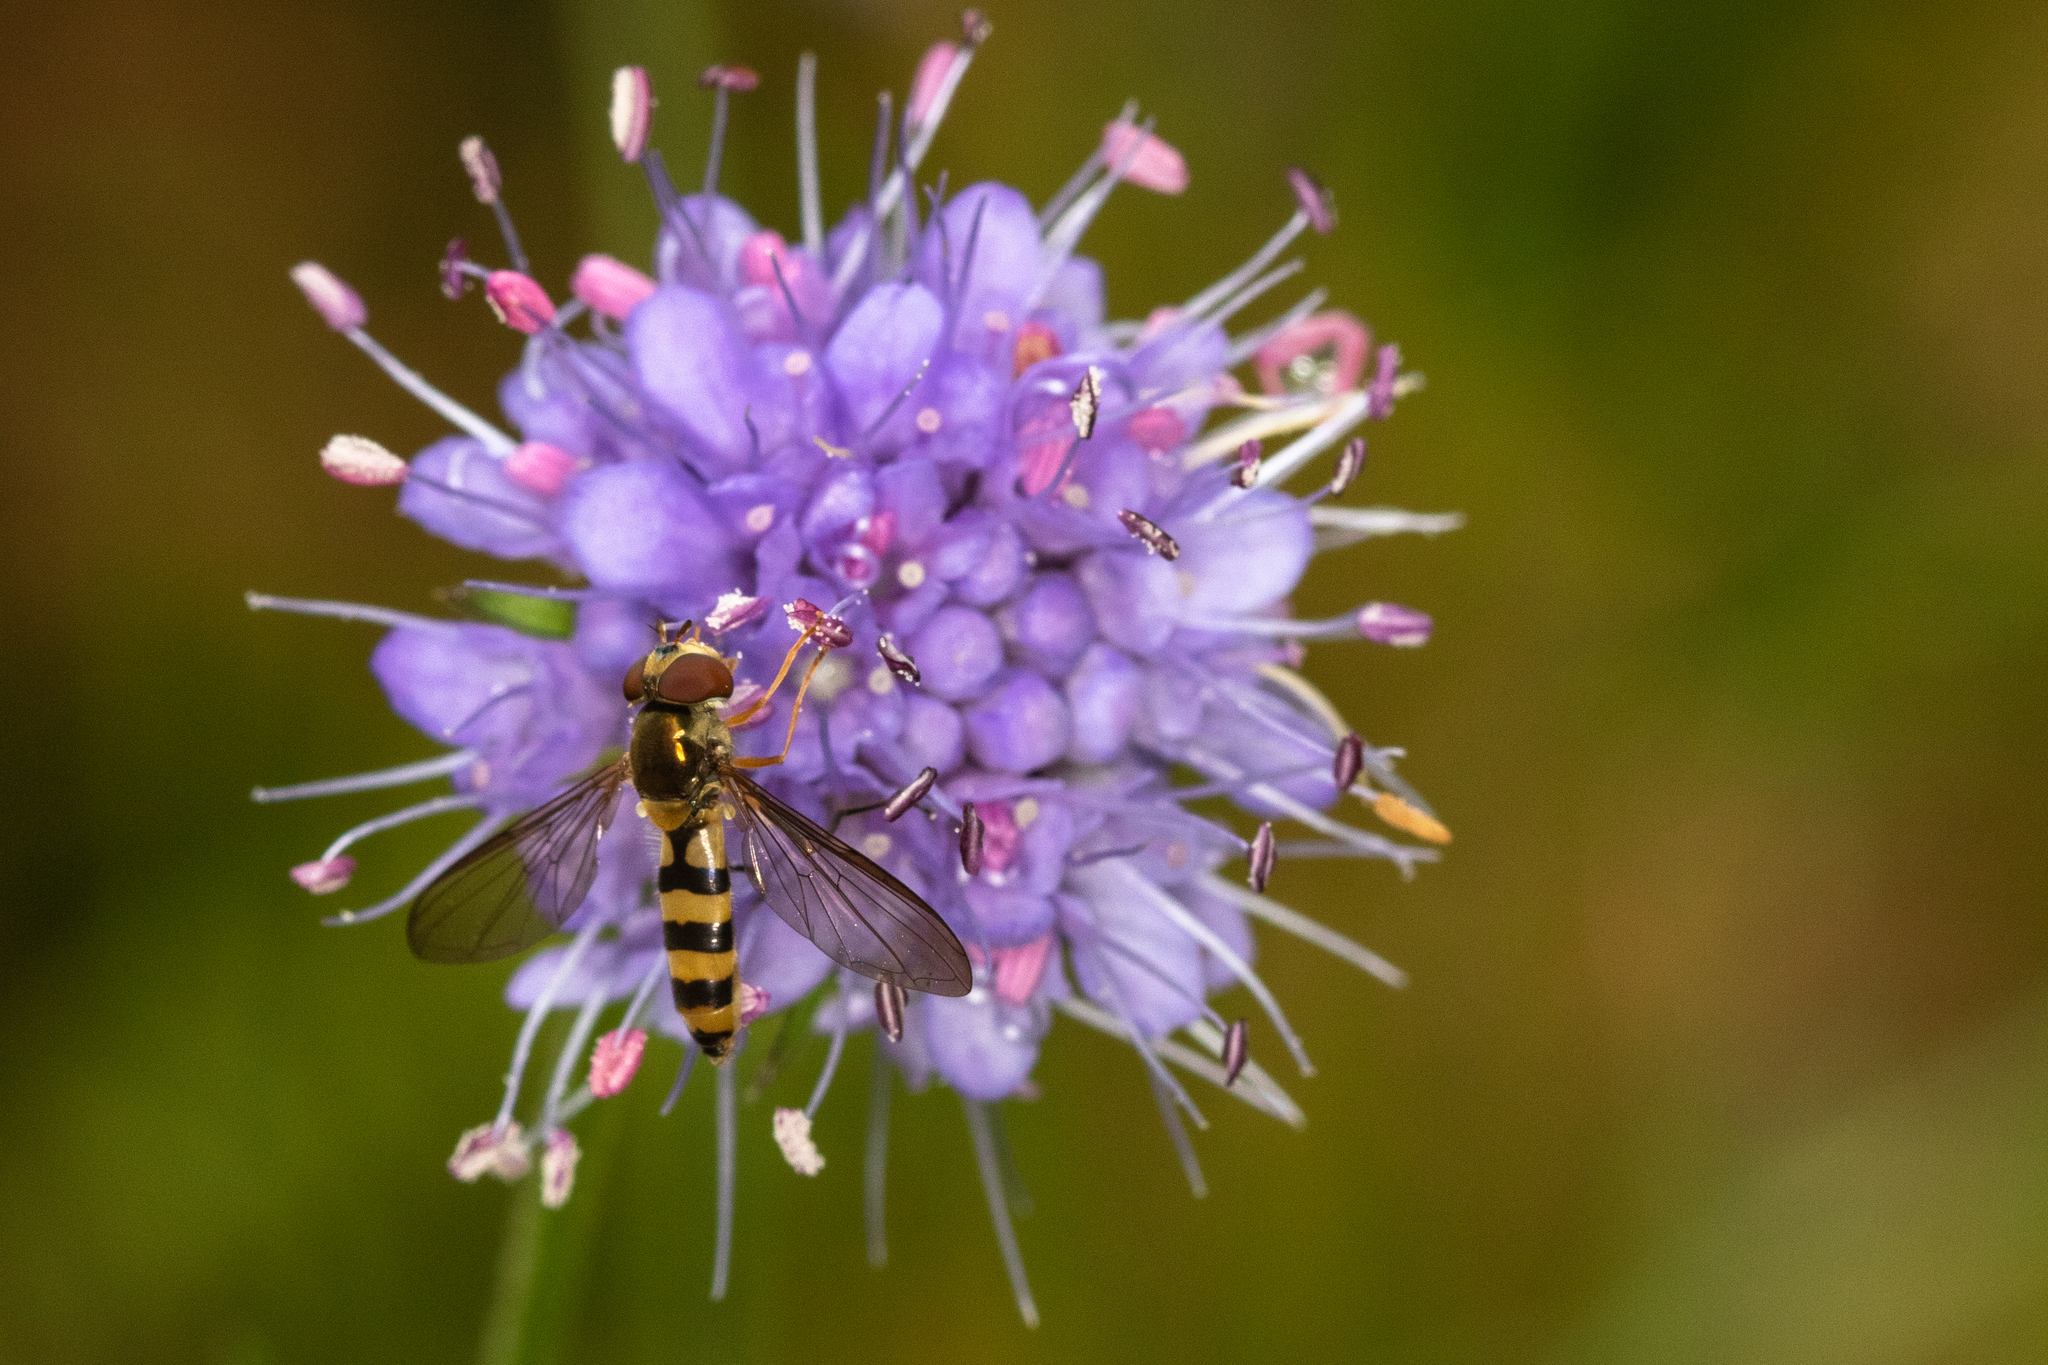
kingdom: Animalia
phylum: Arthropoda
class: Insecta
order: Diptera
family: Syrphidae
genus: Meliscaeva
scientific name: Meliscaeva cinctella
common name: American thintail fly
